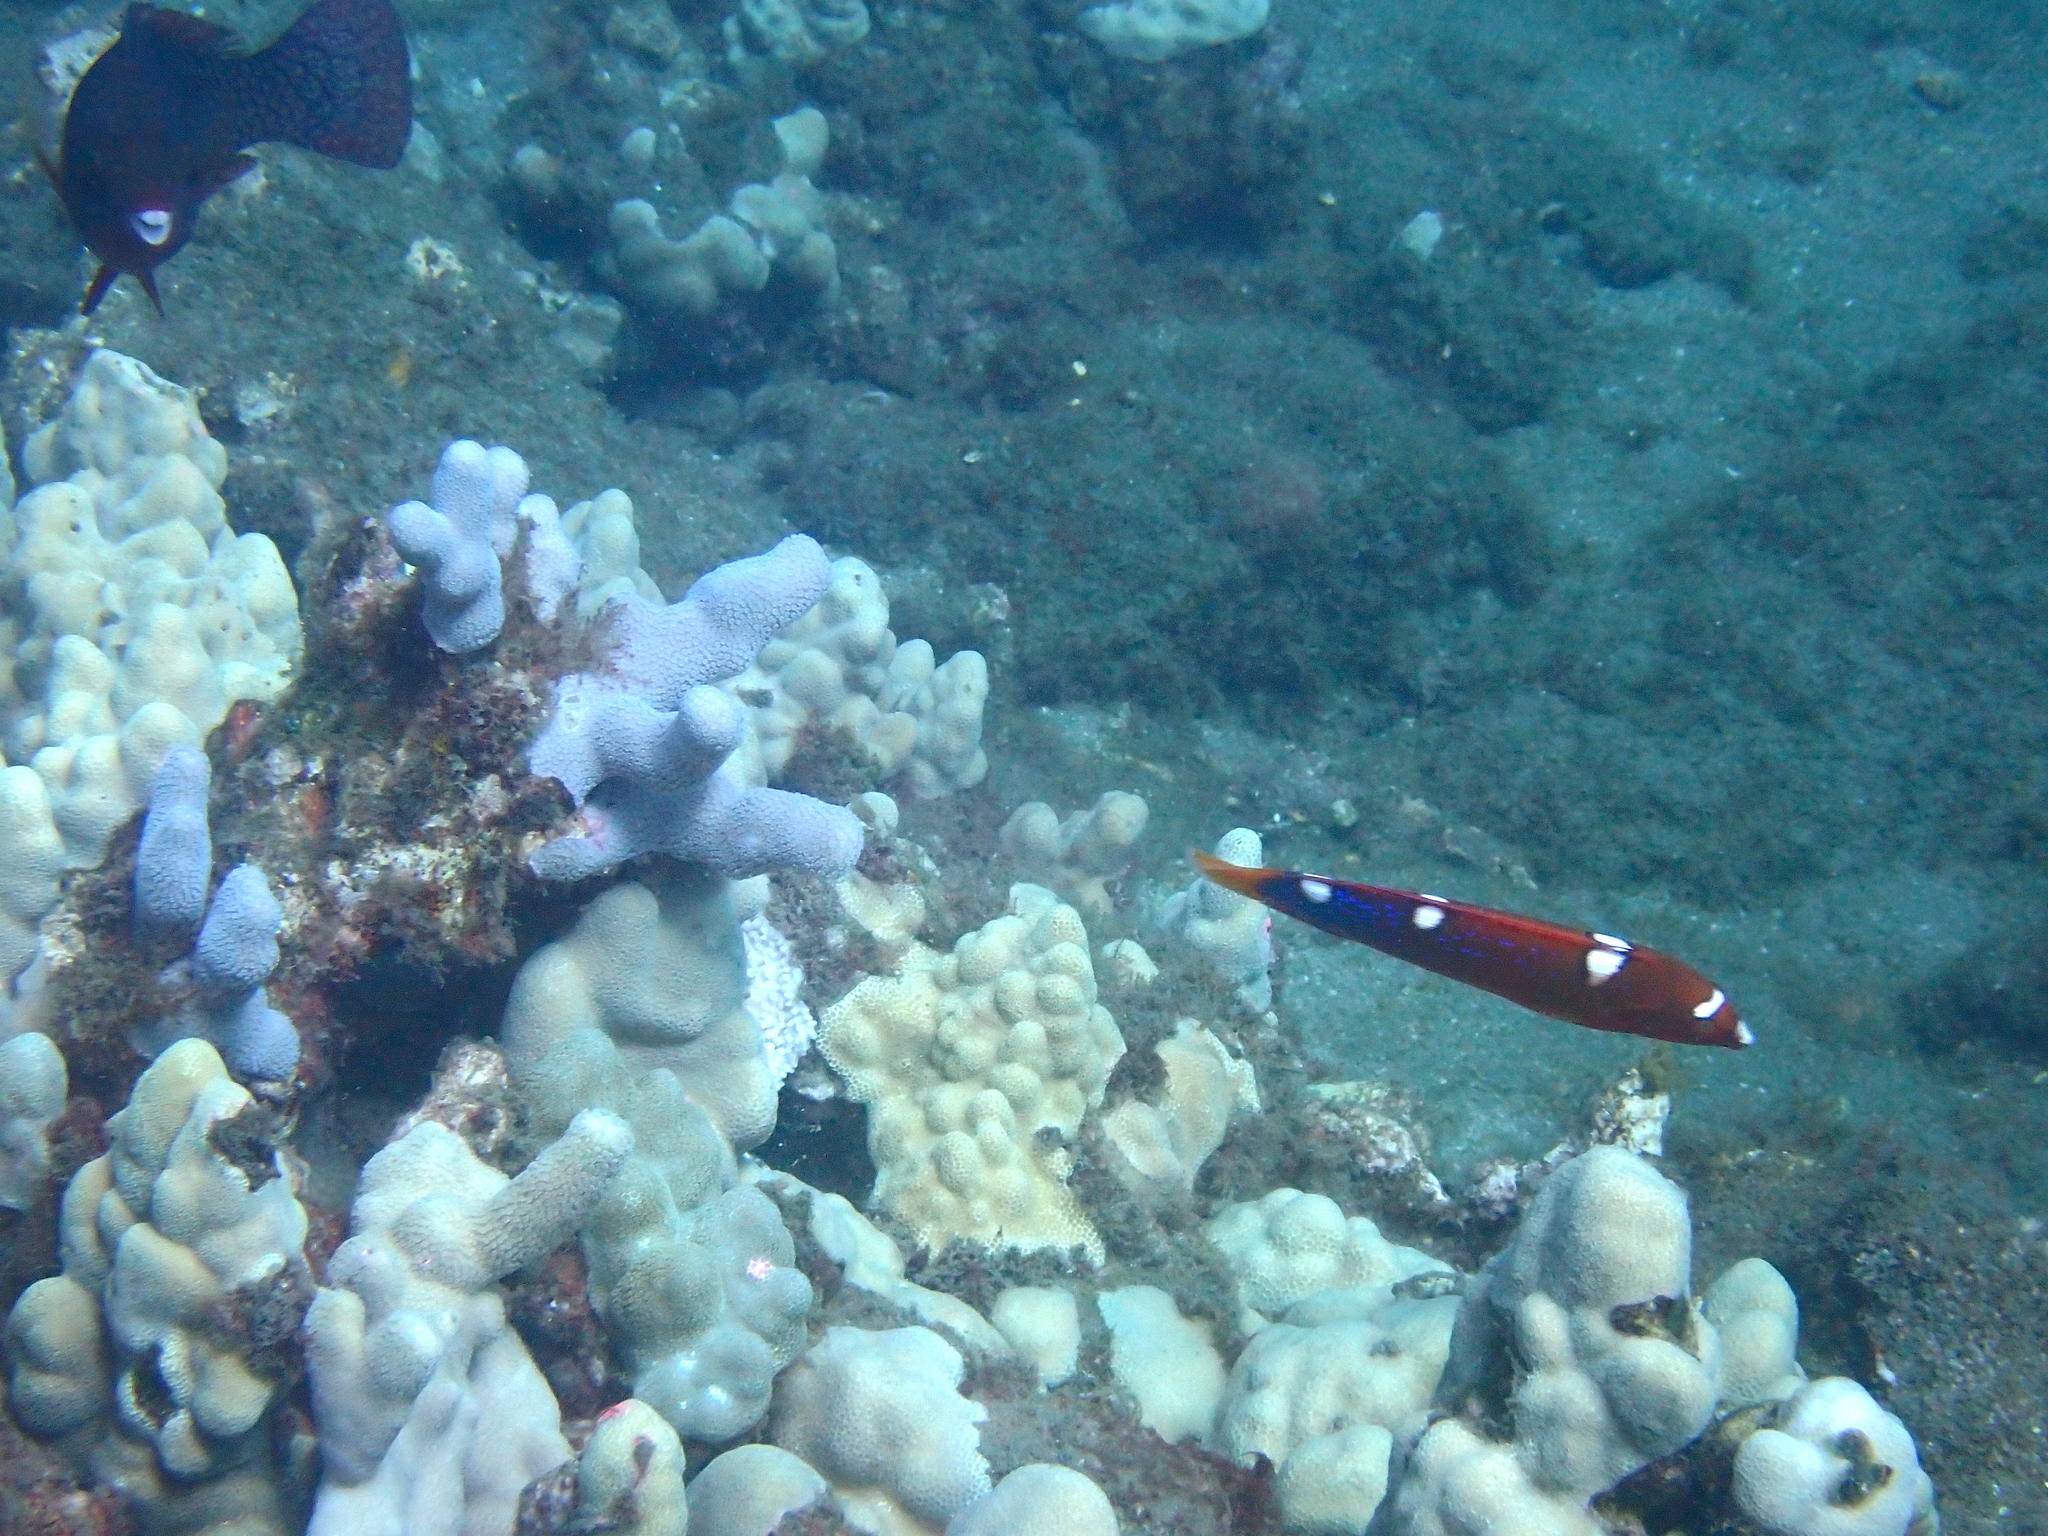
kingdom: Animalia
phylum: Chordata
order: Perciformes
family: Labridae
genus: Coris
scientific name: Coris gaimard
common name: Yellowtail coris
